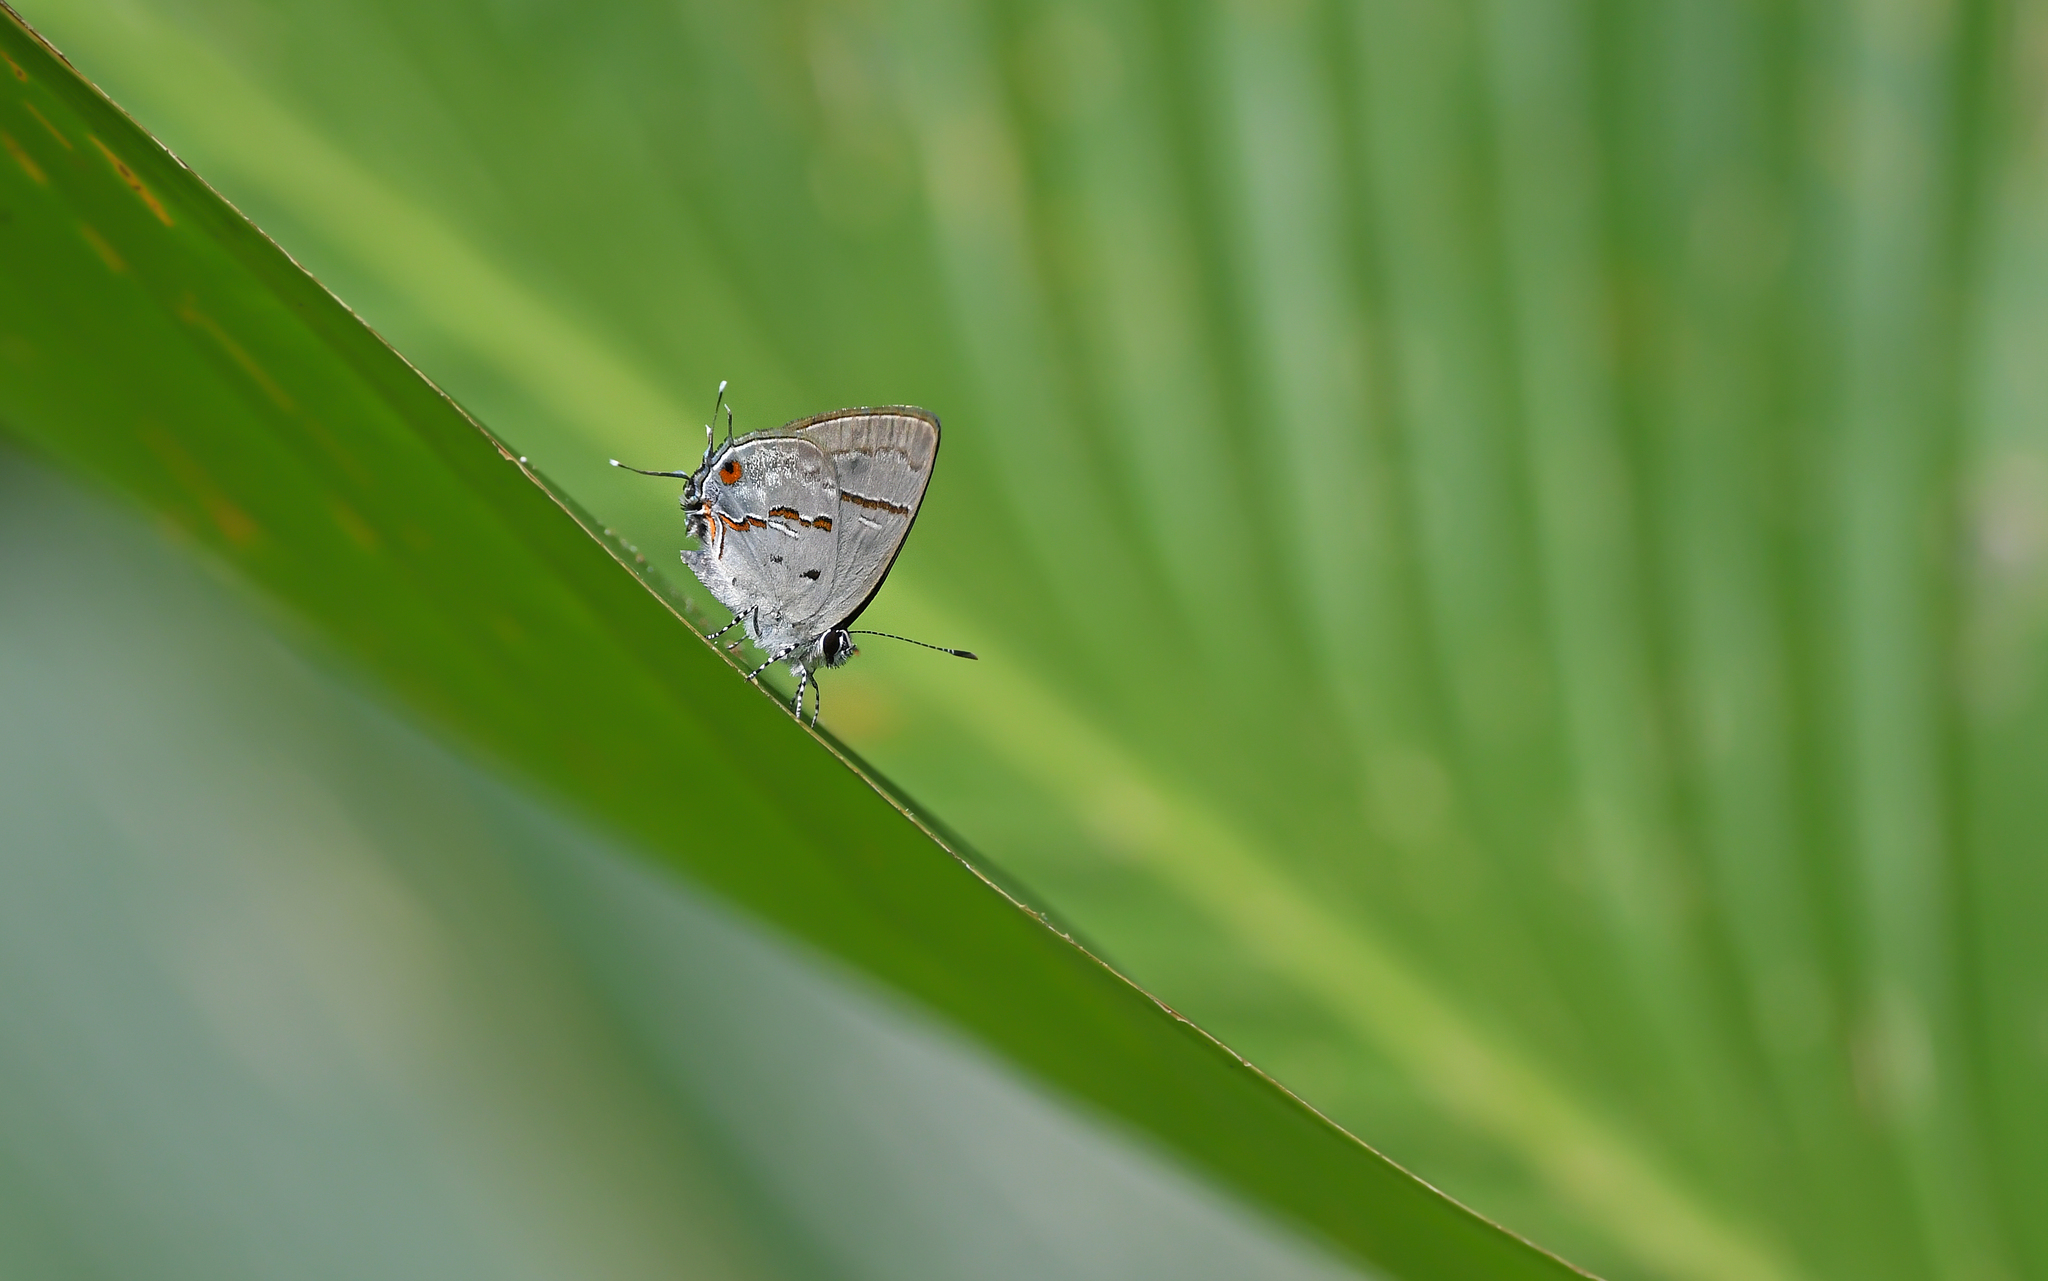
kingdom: Animalia
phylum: Arthropoda
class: Insecta
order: Lepidoptera
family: Lycaenidae
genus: Thecla
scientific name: Thecla alda
